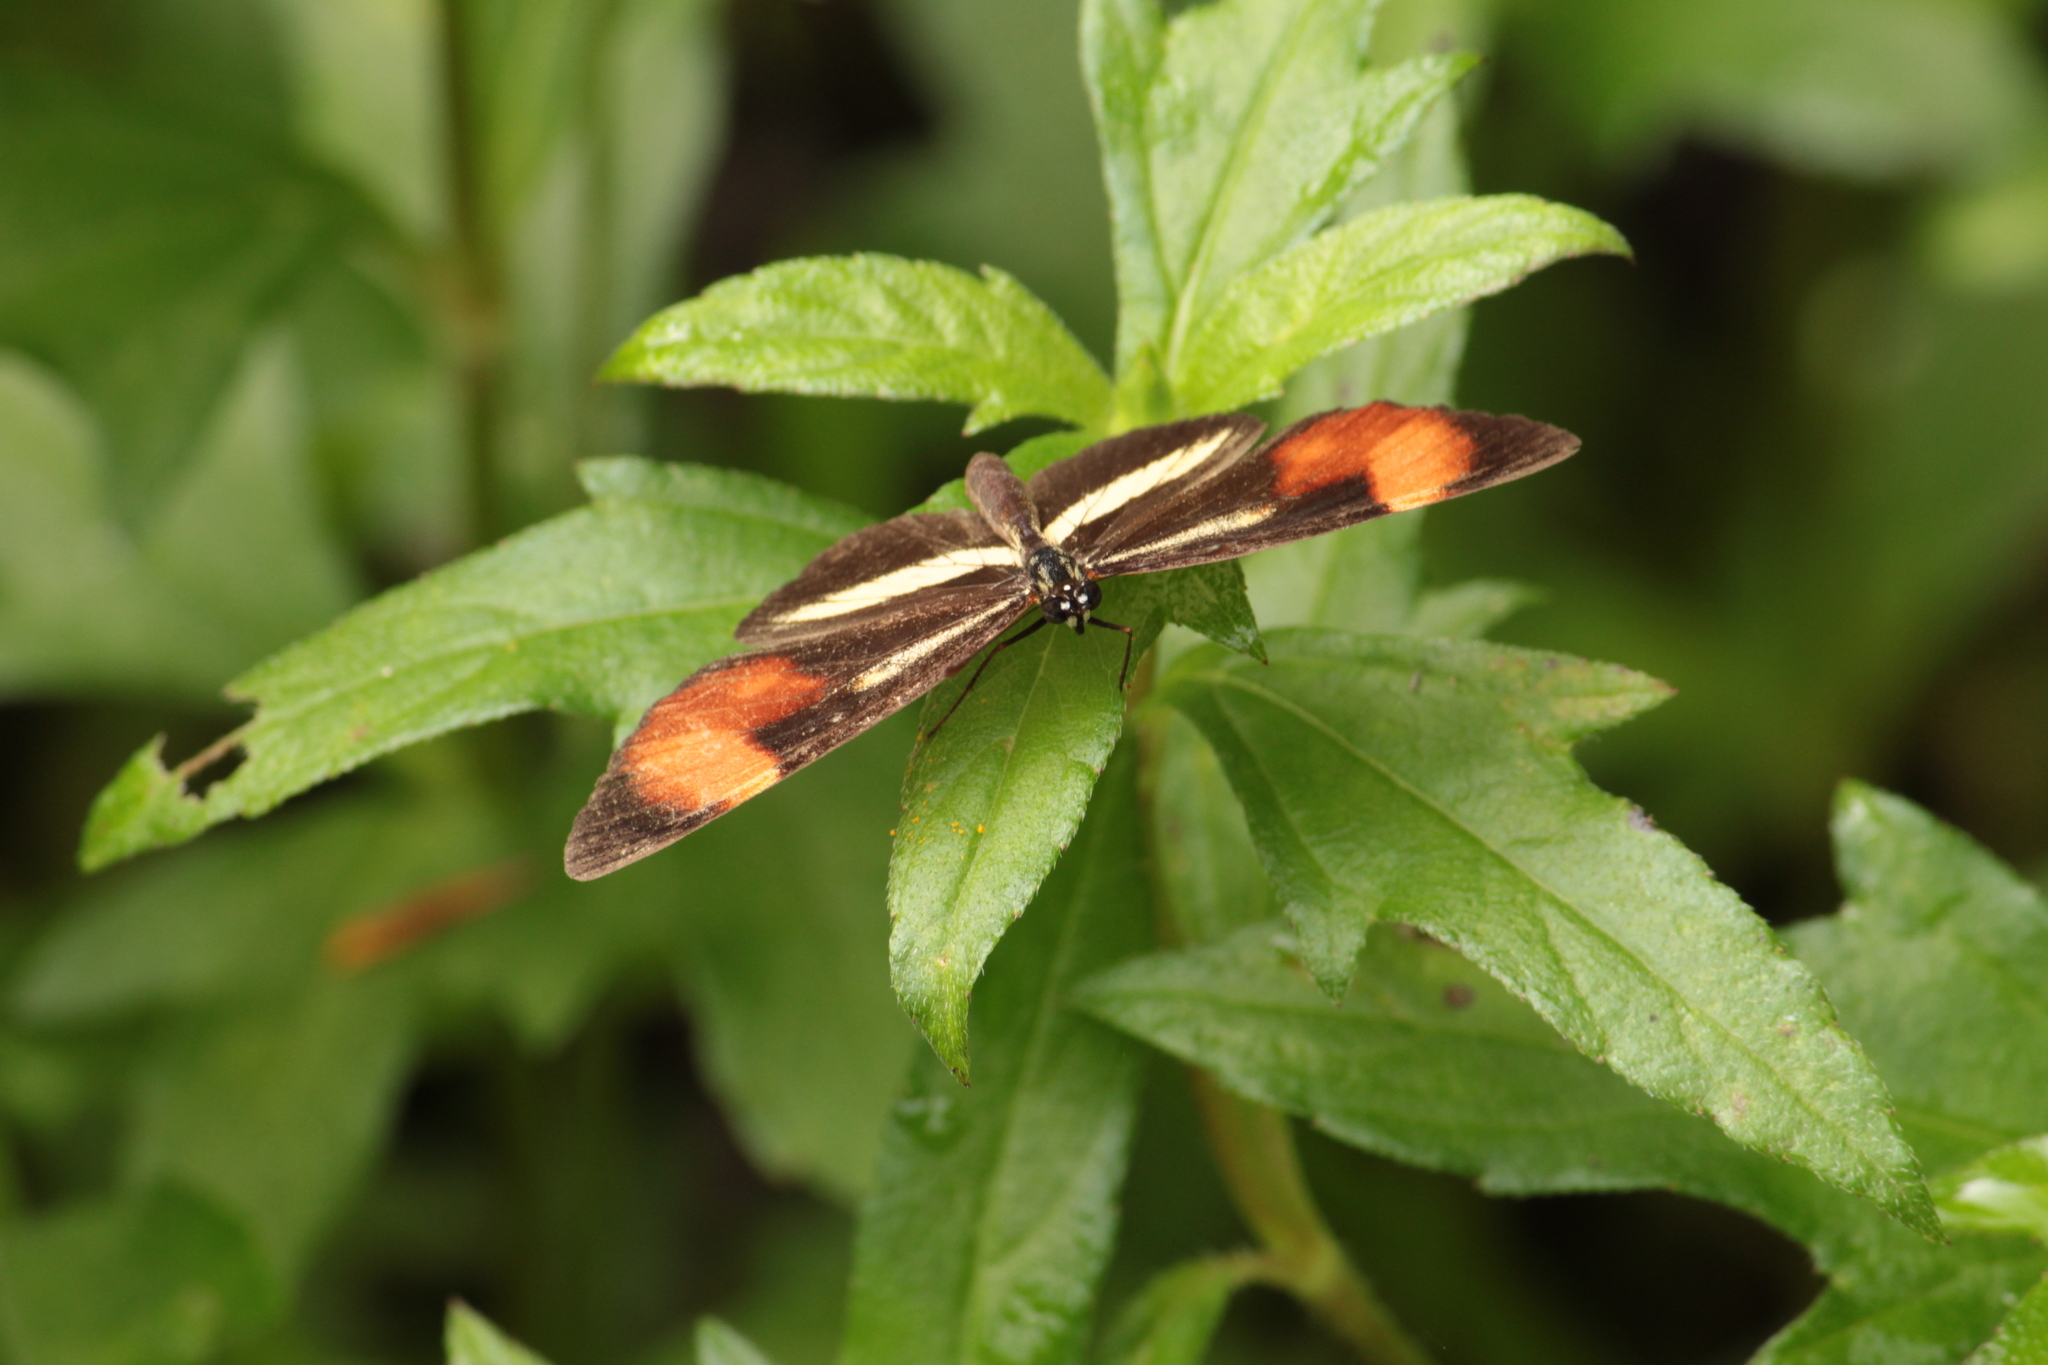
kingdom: Animalia
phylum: Arthropoda
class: Insecta
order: Lepidoptera
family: Nymphalidae
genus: Eresia
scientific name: Eresia lansdorfi
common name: Lansdorf's crescent
